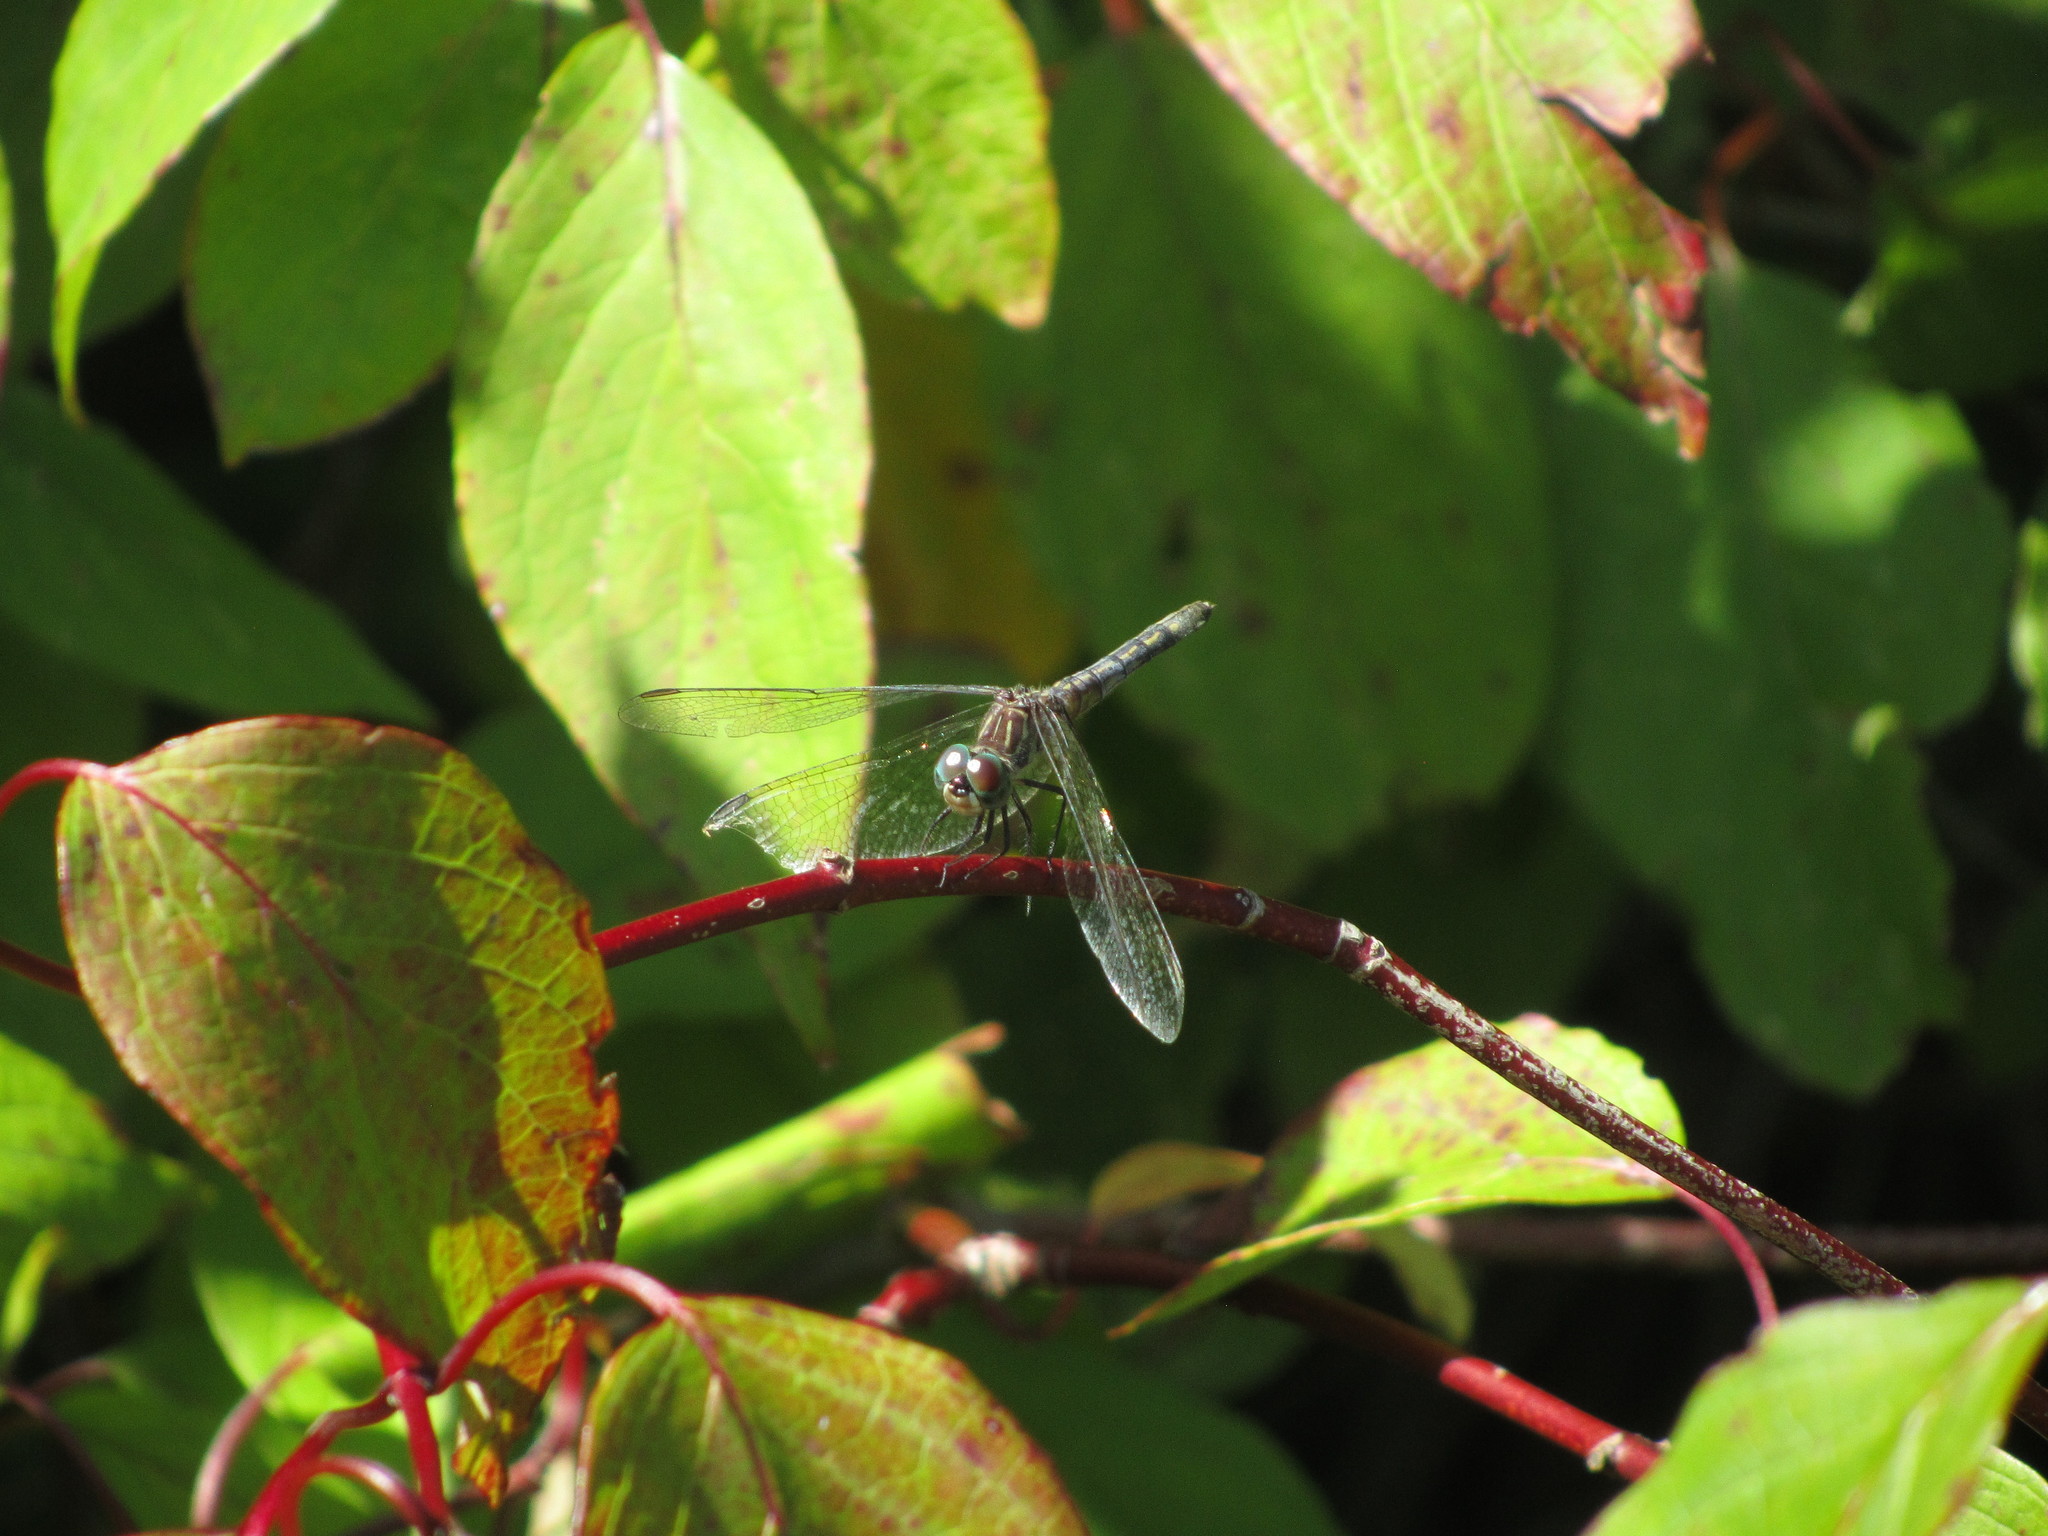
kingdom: Animalia
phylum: Arthropoda
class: Insecta
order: Odonata
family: Libellulidae
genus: Pachydiplax
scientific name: Pachydiplax longipennis
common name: Blue dasher
